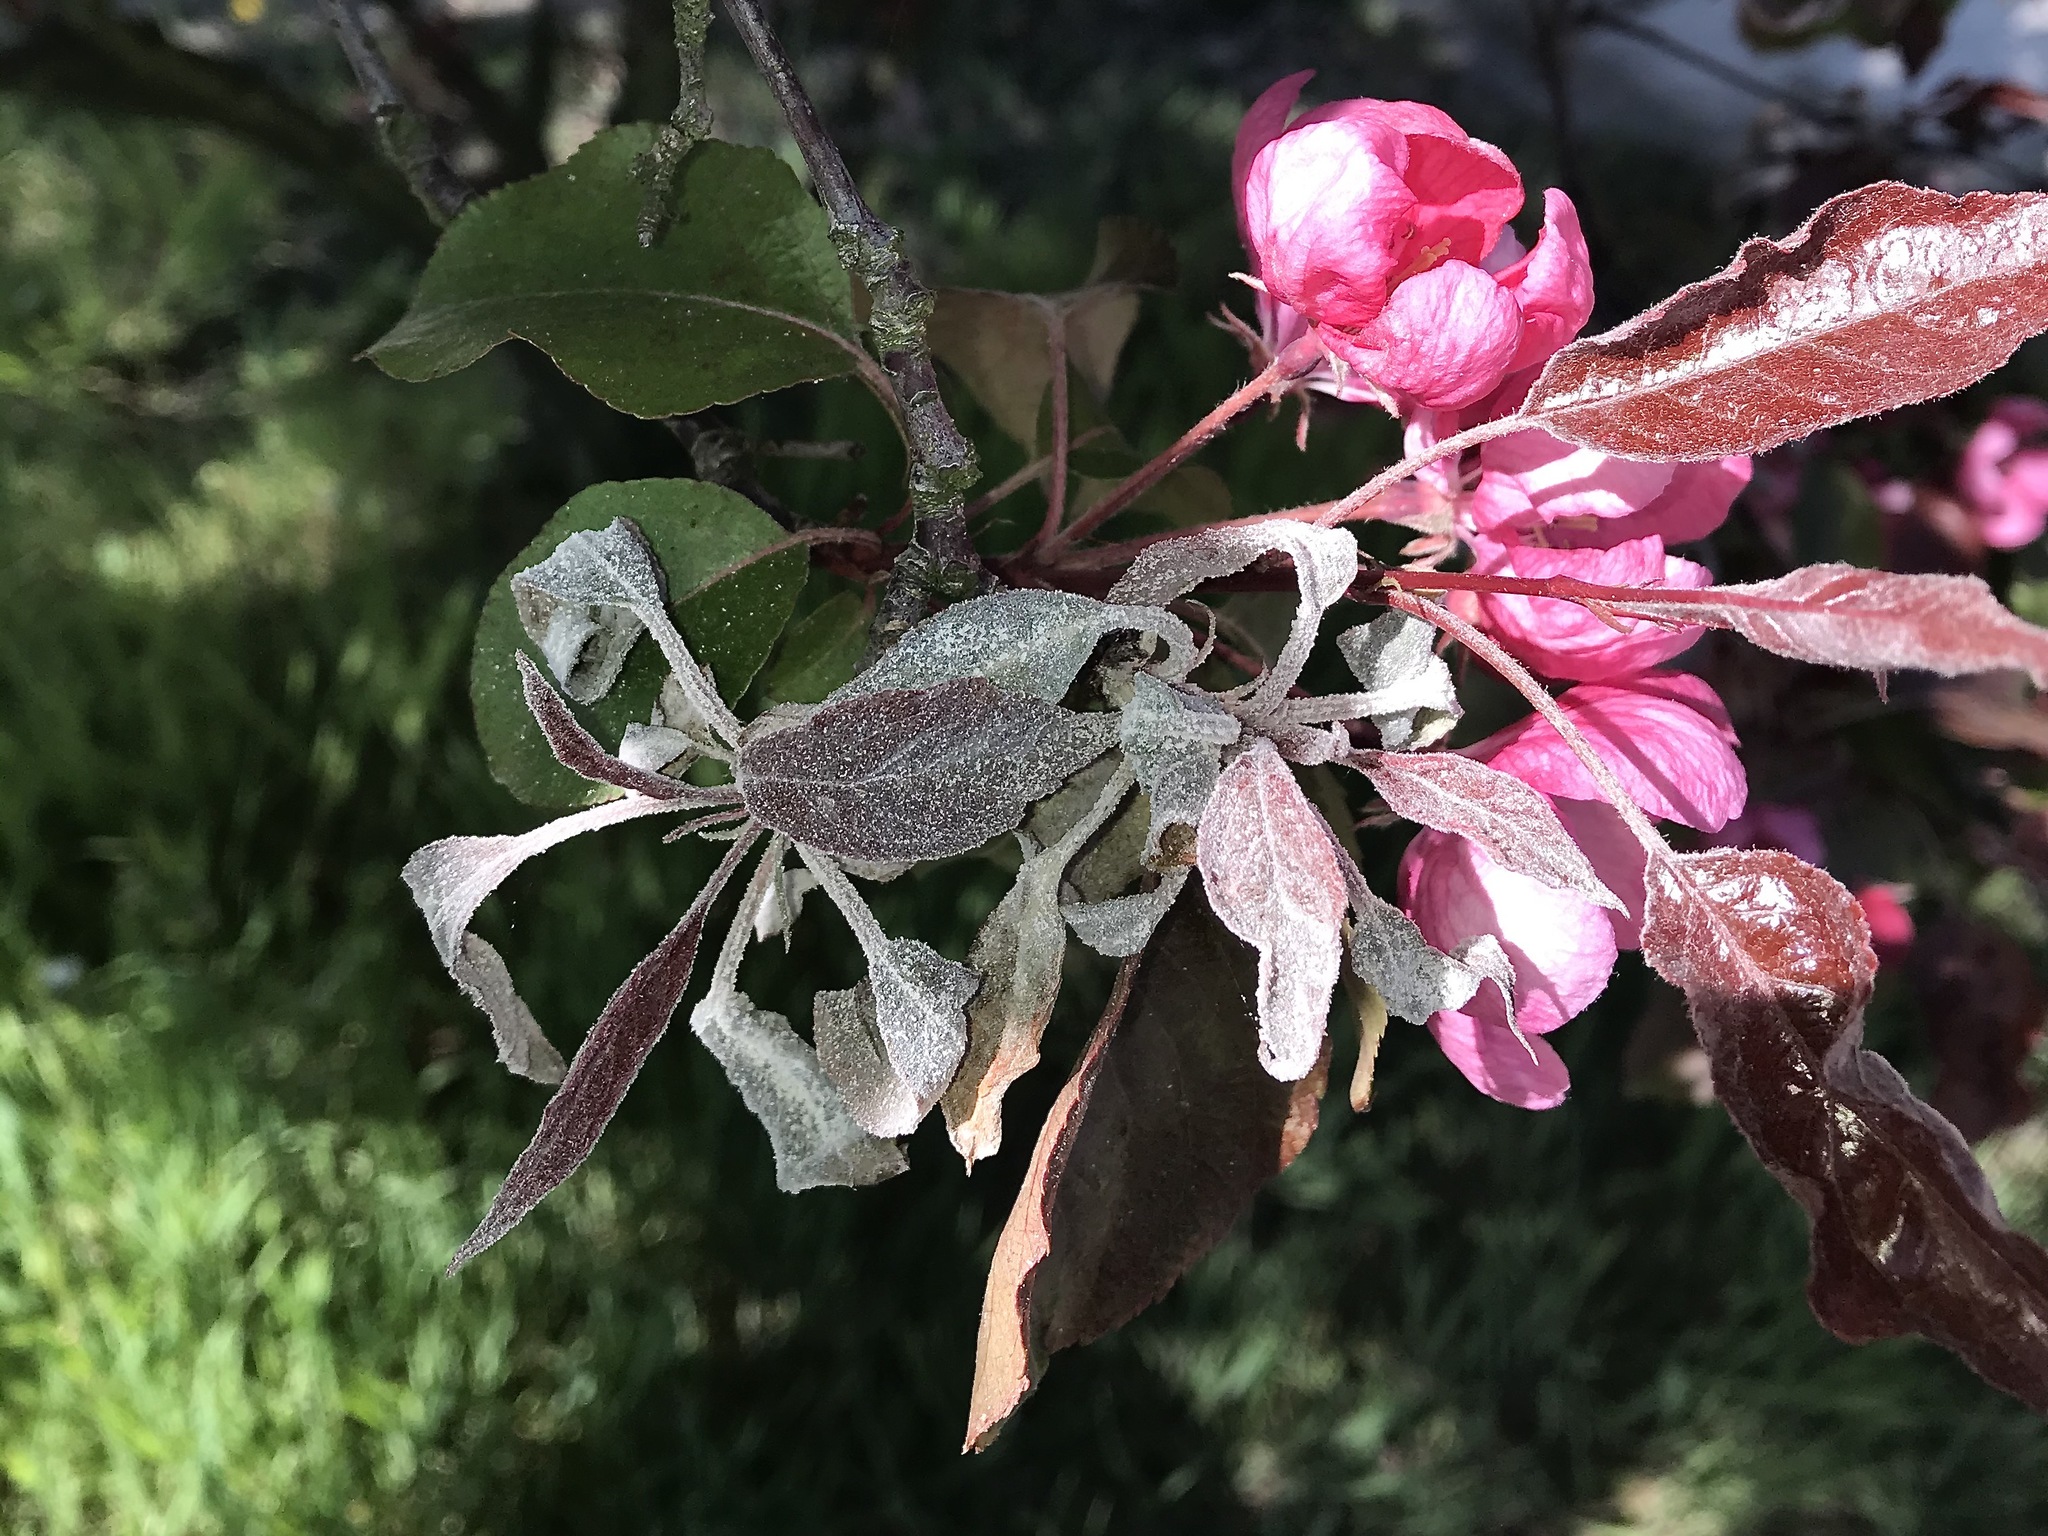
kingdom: Fungi
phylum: Ascomycota
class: Leotiomycetes
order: Helotiales
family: Erysiphaceae
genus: Podosphaera
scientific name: Podosphaera leucotricha
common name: Apple powdery mildew
